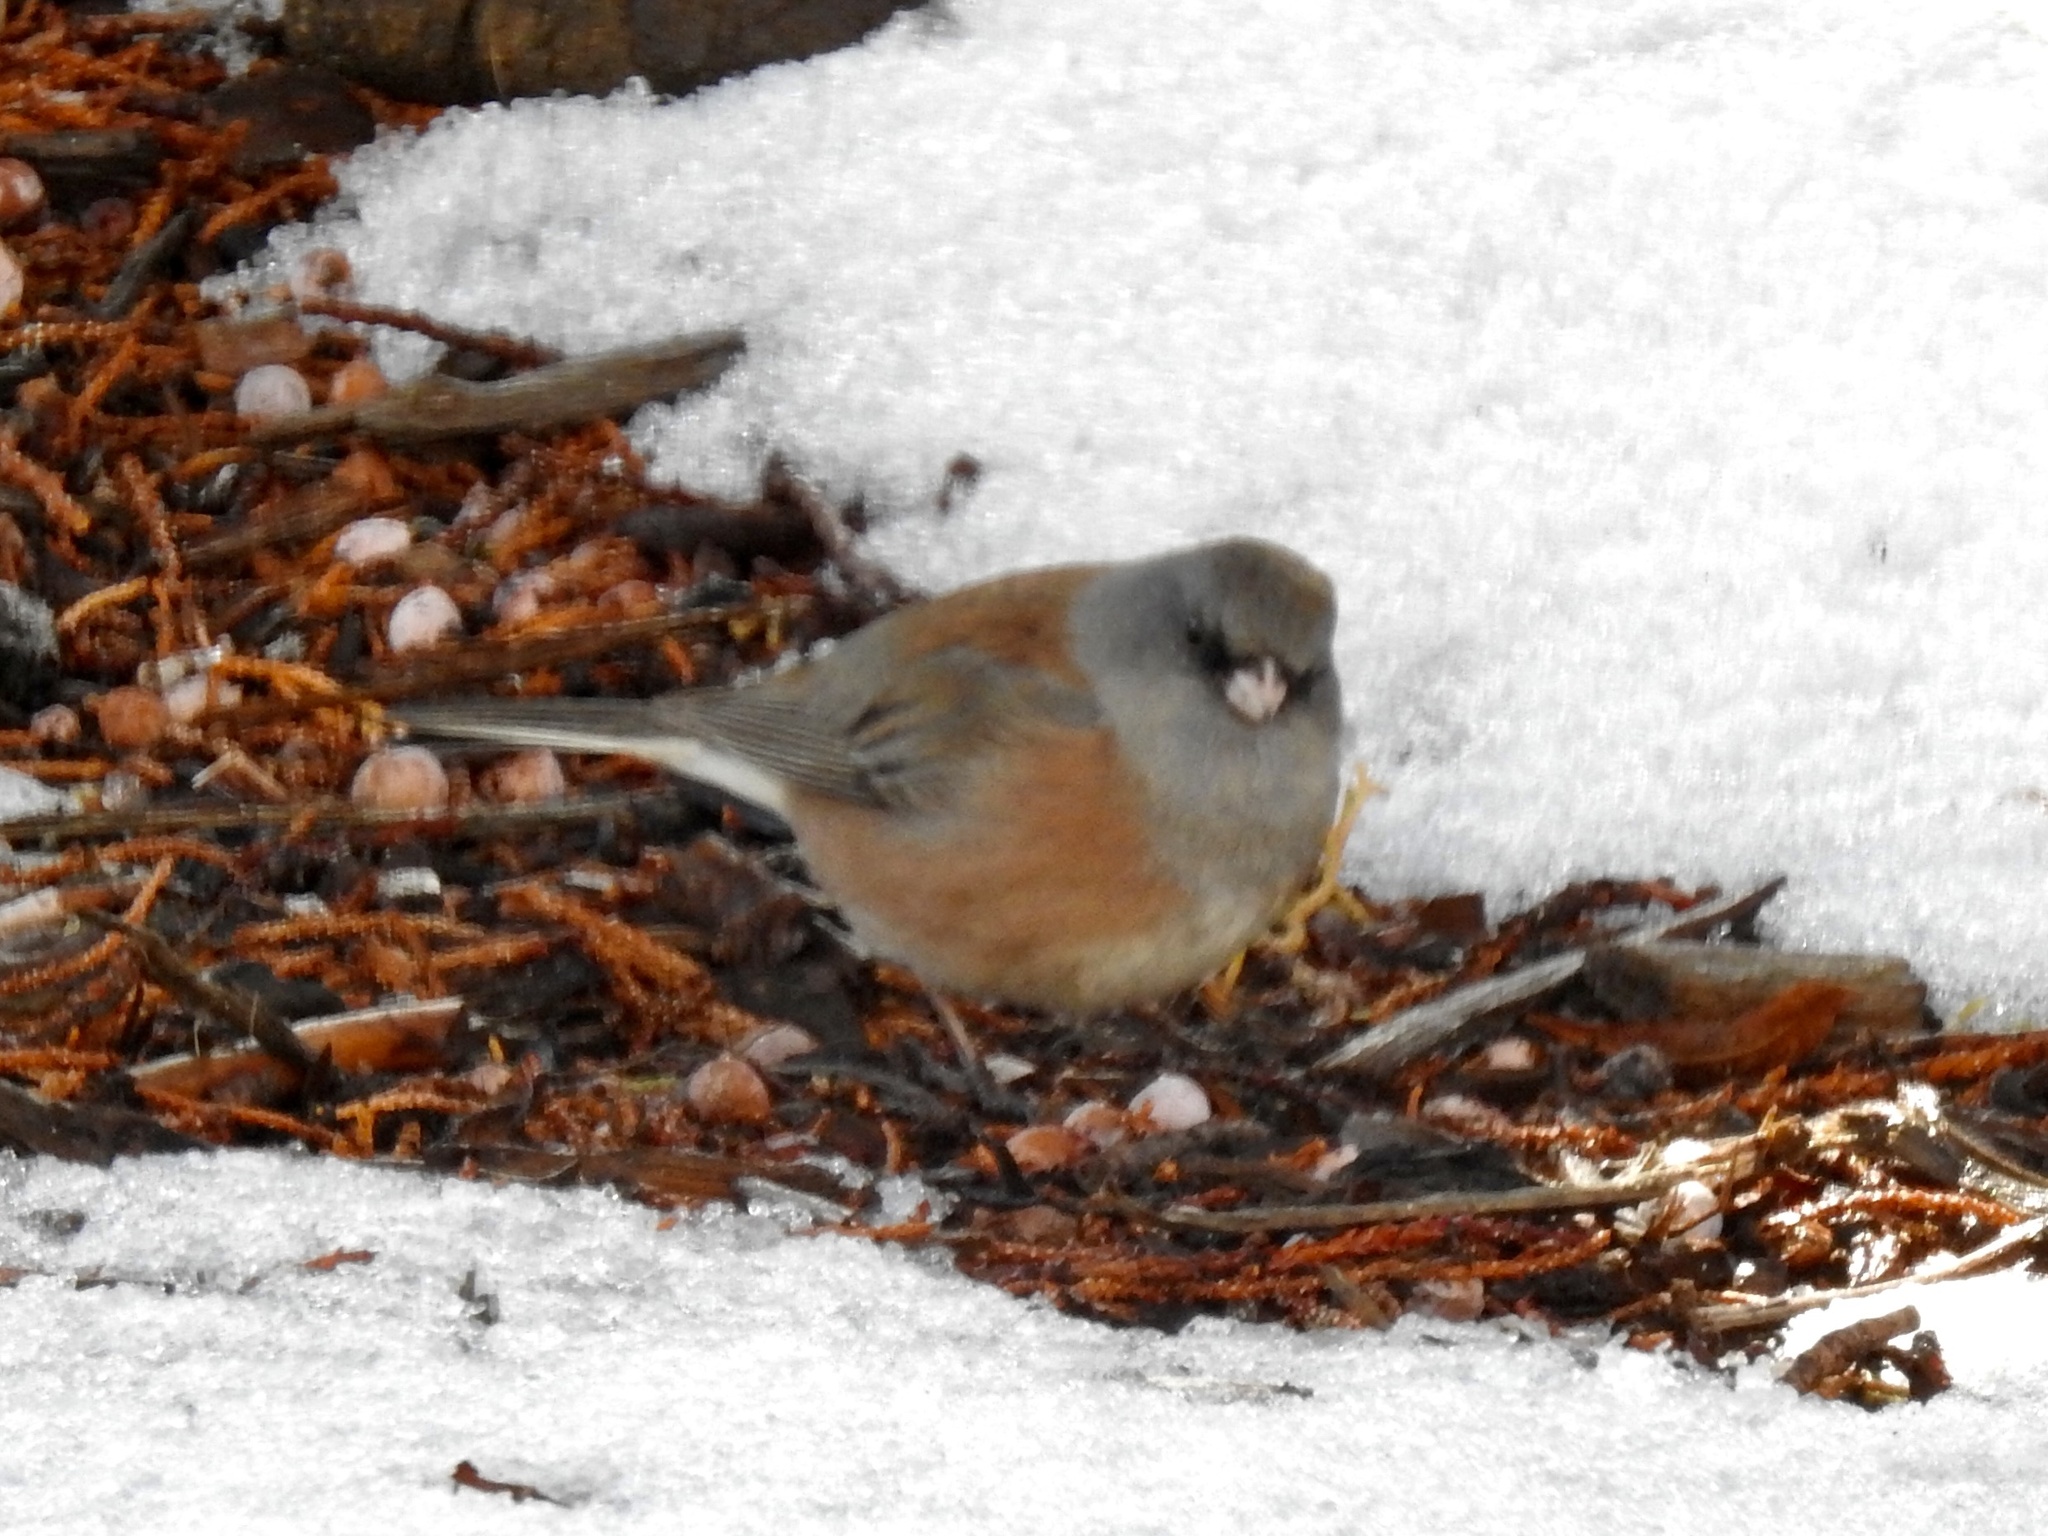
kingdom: Animalia
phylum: Chordata
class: Aves
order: Passeriformes
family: Passerellidae
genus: Junco
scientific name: Junco hyemalis
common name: Dark-eyed junco
